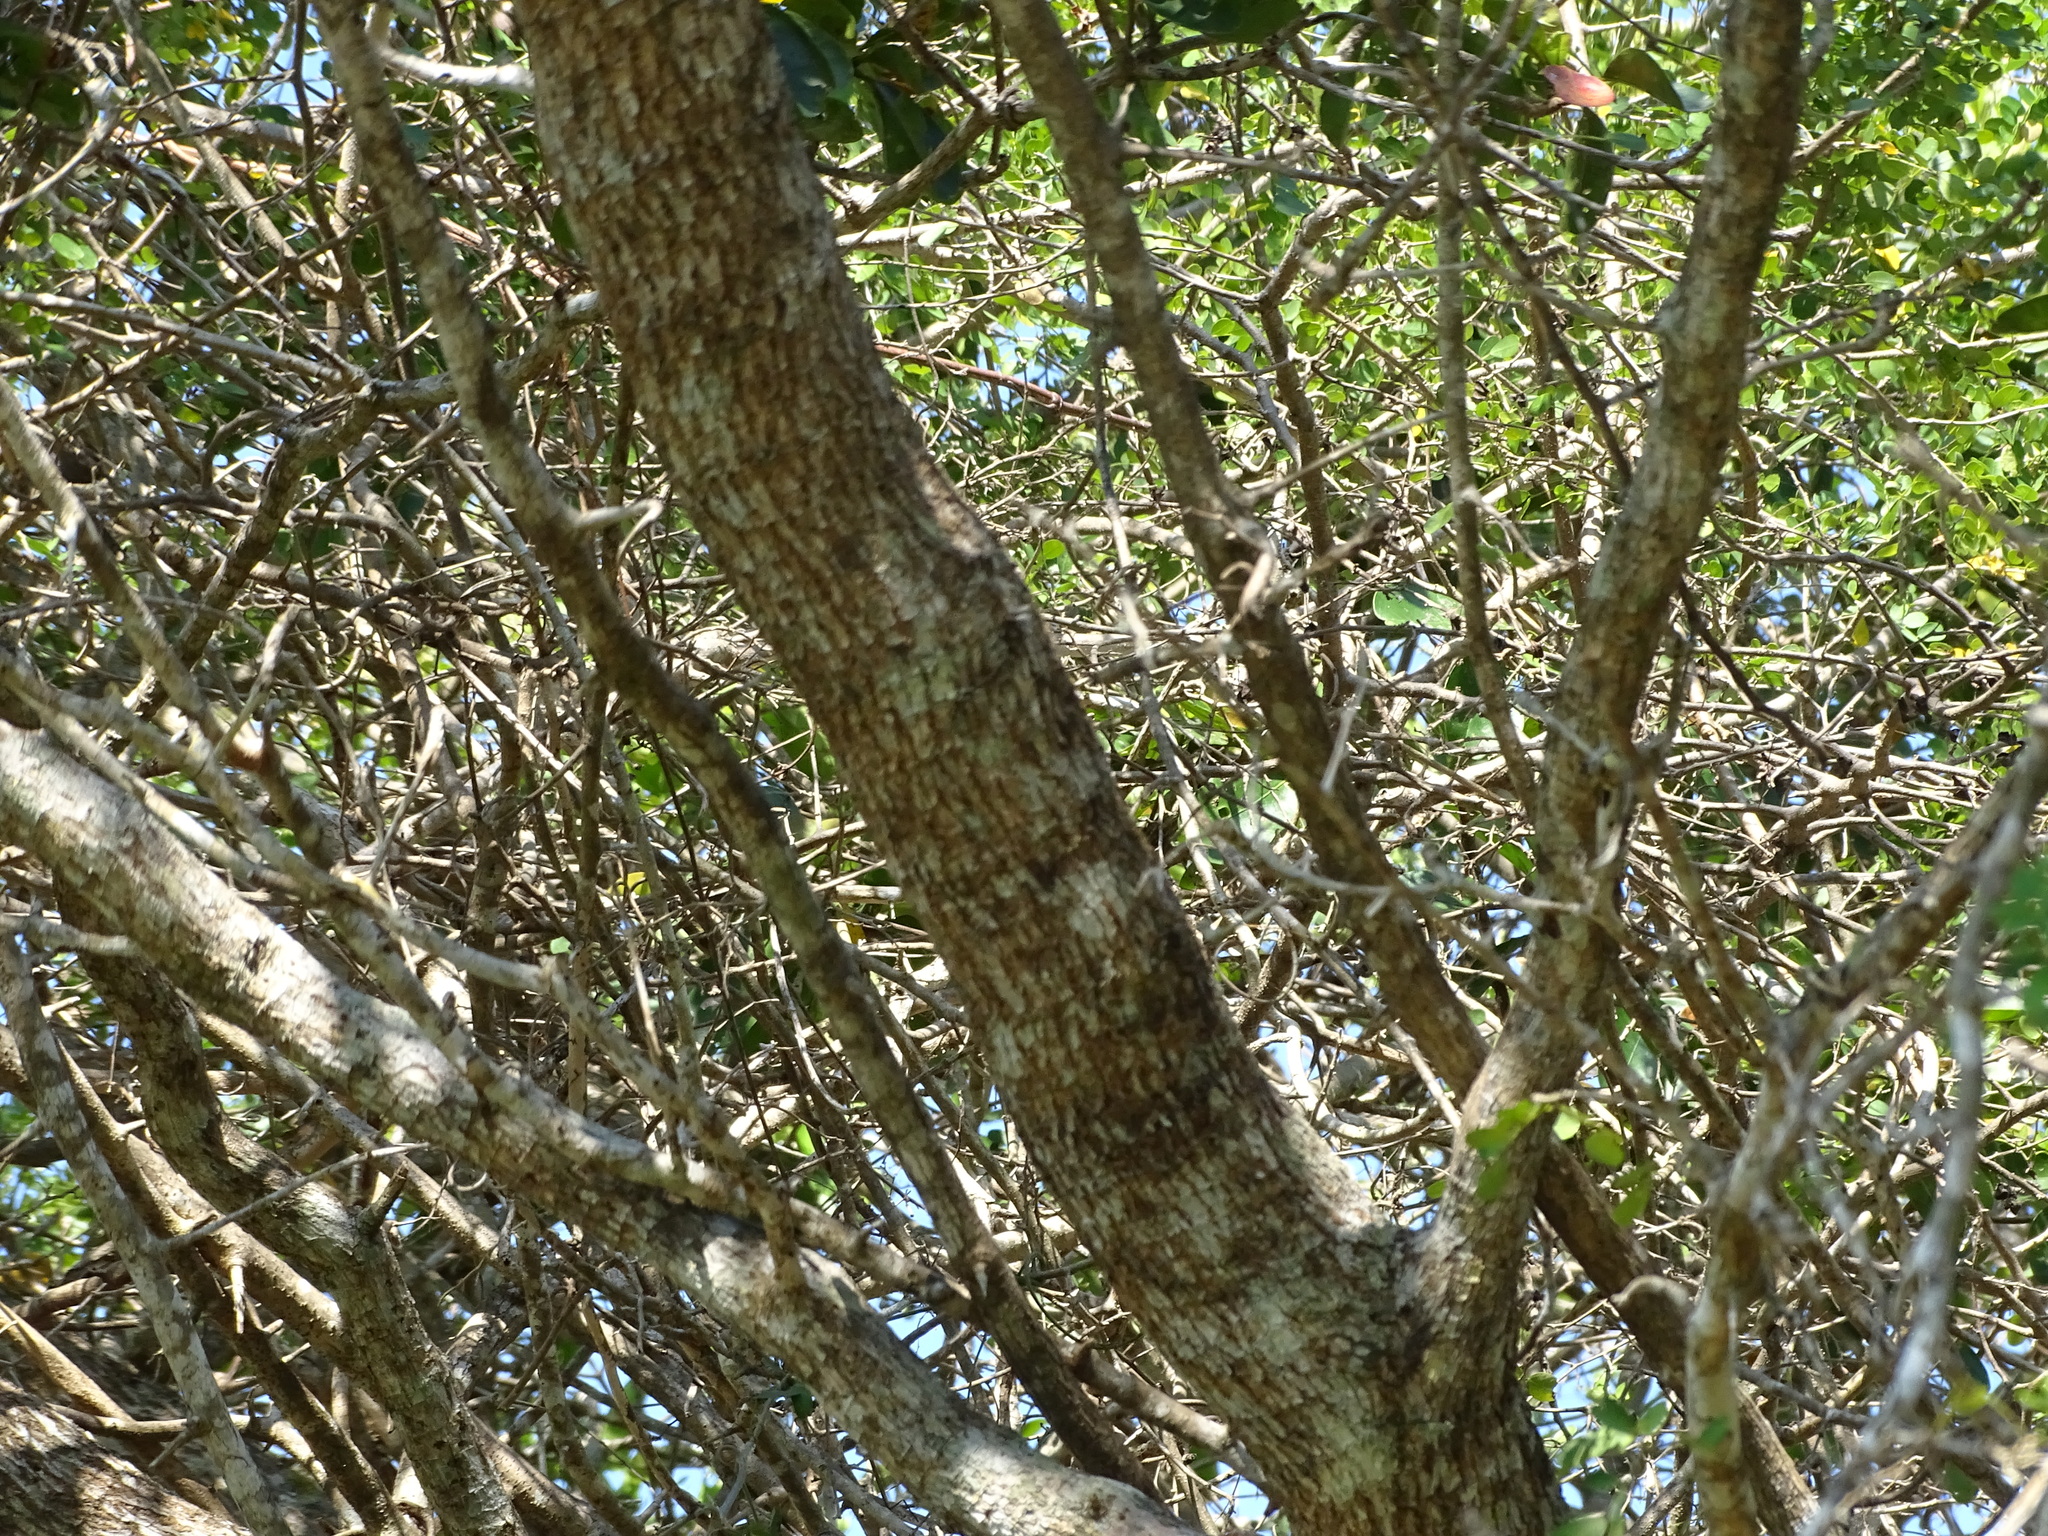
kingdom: Plantae
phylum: Tracheophyta
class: Magnoliopsida
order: Myrtales
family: Combretaceae
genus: Terminalia
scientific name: Terminalia buceras
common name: Black-olive
